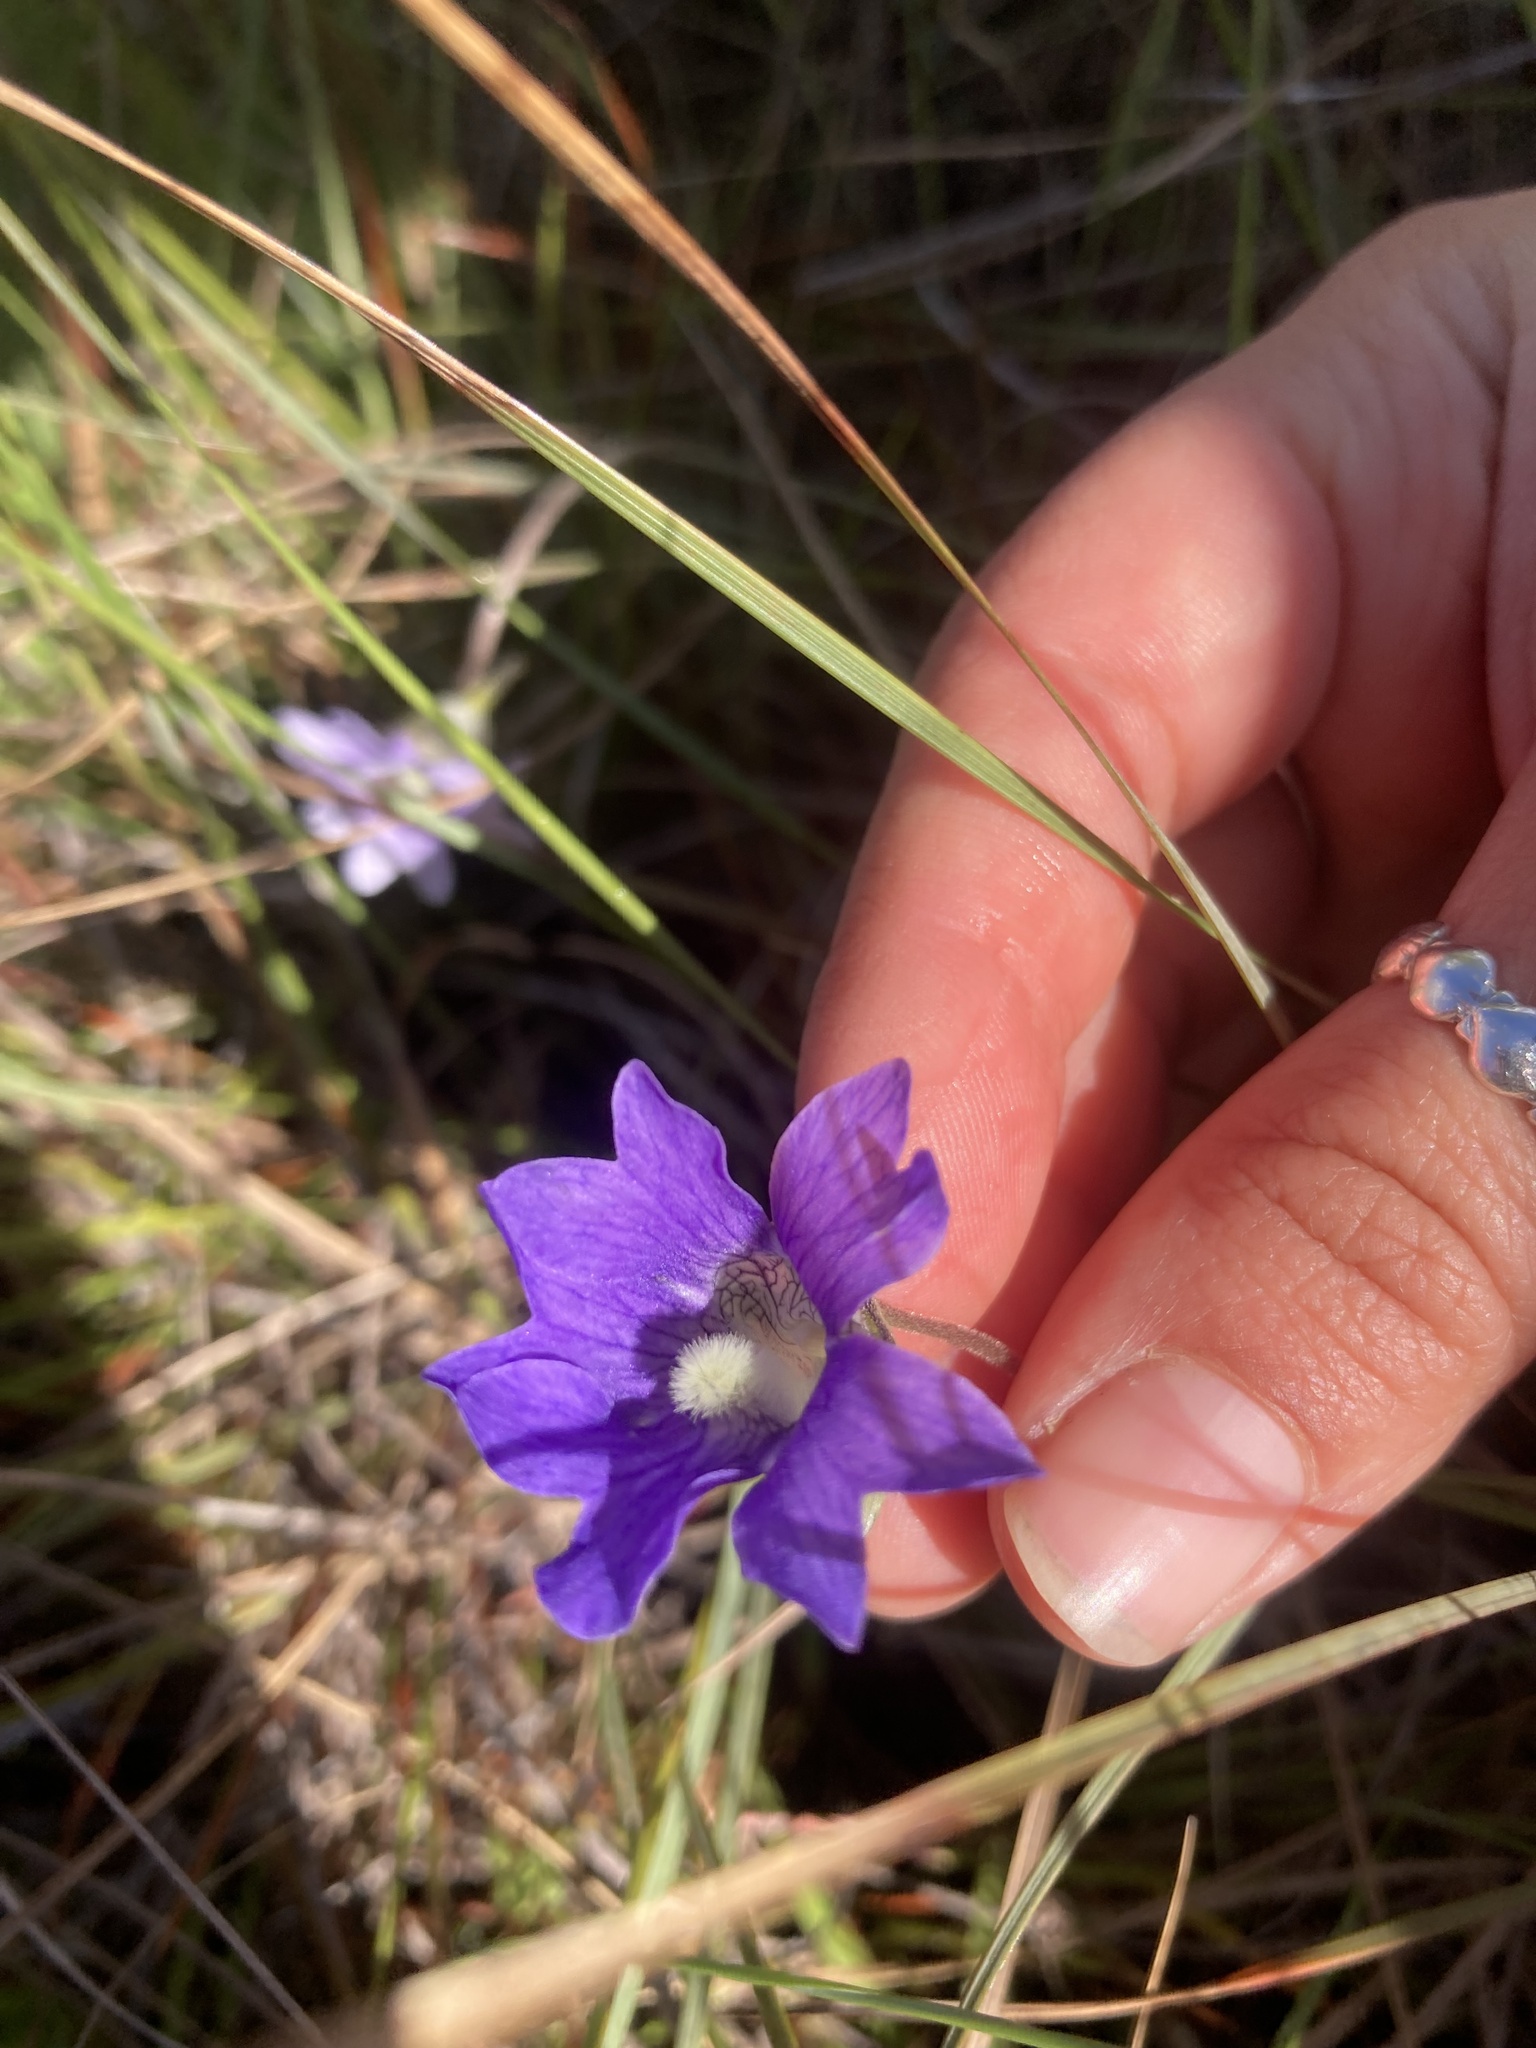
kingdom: Plantae
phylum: Tracheophyta
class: Magnoliopsida
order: Lamiales
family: Lentibulariaceae
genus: Pinguicula
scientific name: Pinguicula caerulea
